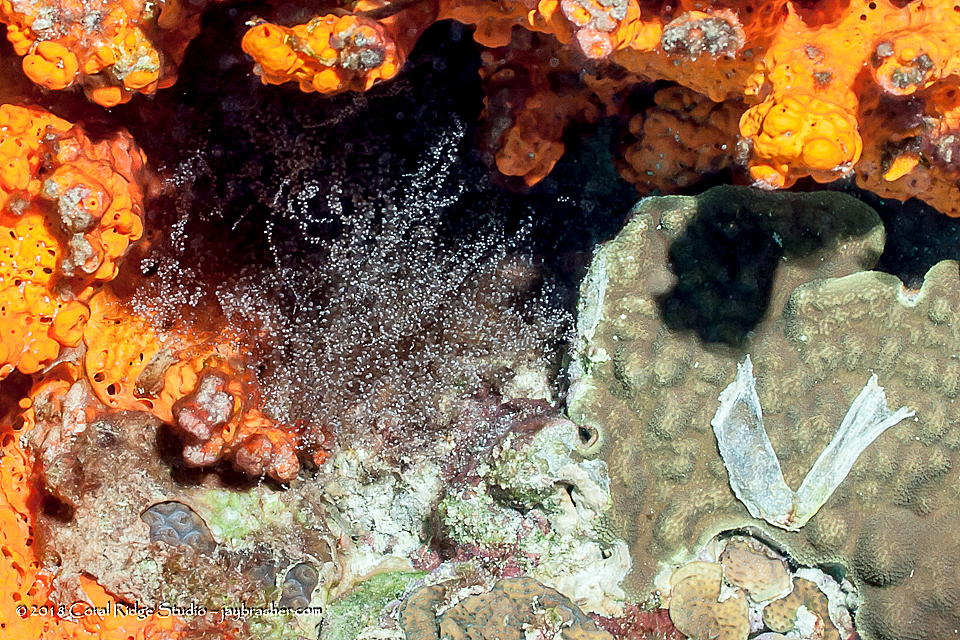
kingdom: Animalia
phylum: Cnidaria
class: Anthozoa
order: Actiniaria
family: Aiptasiidae
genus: Laviactis
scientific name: Laviactis lucida
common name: Atlantic beaded anemone
